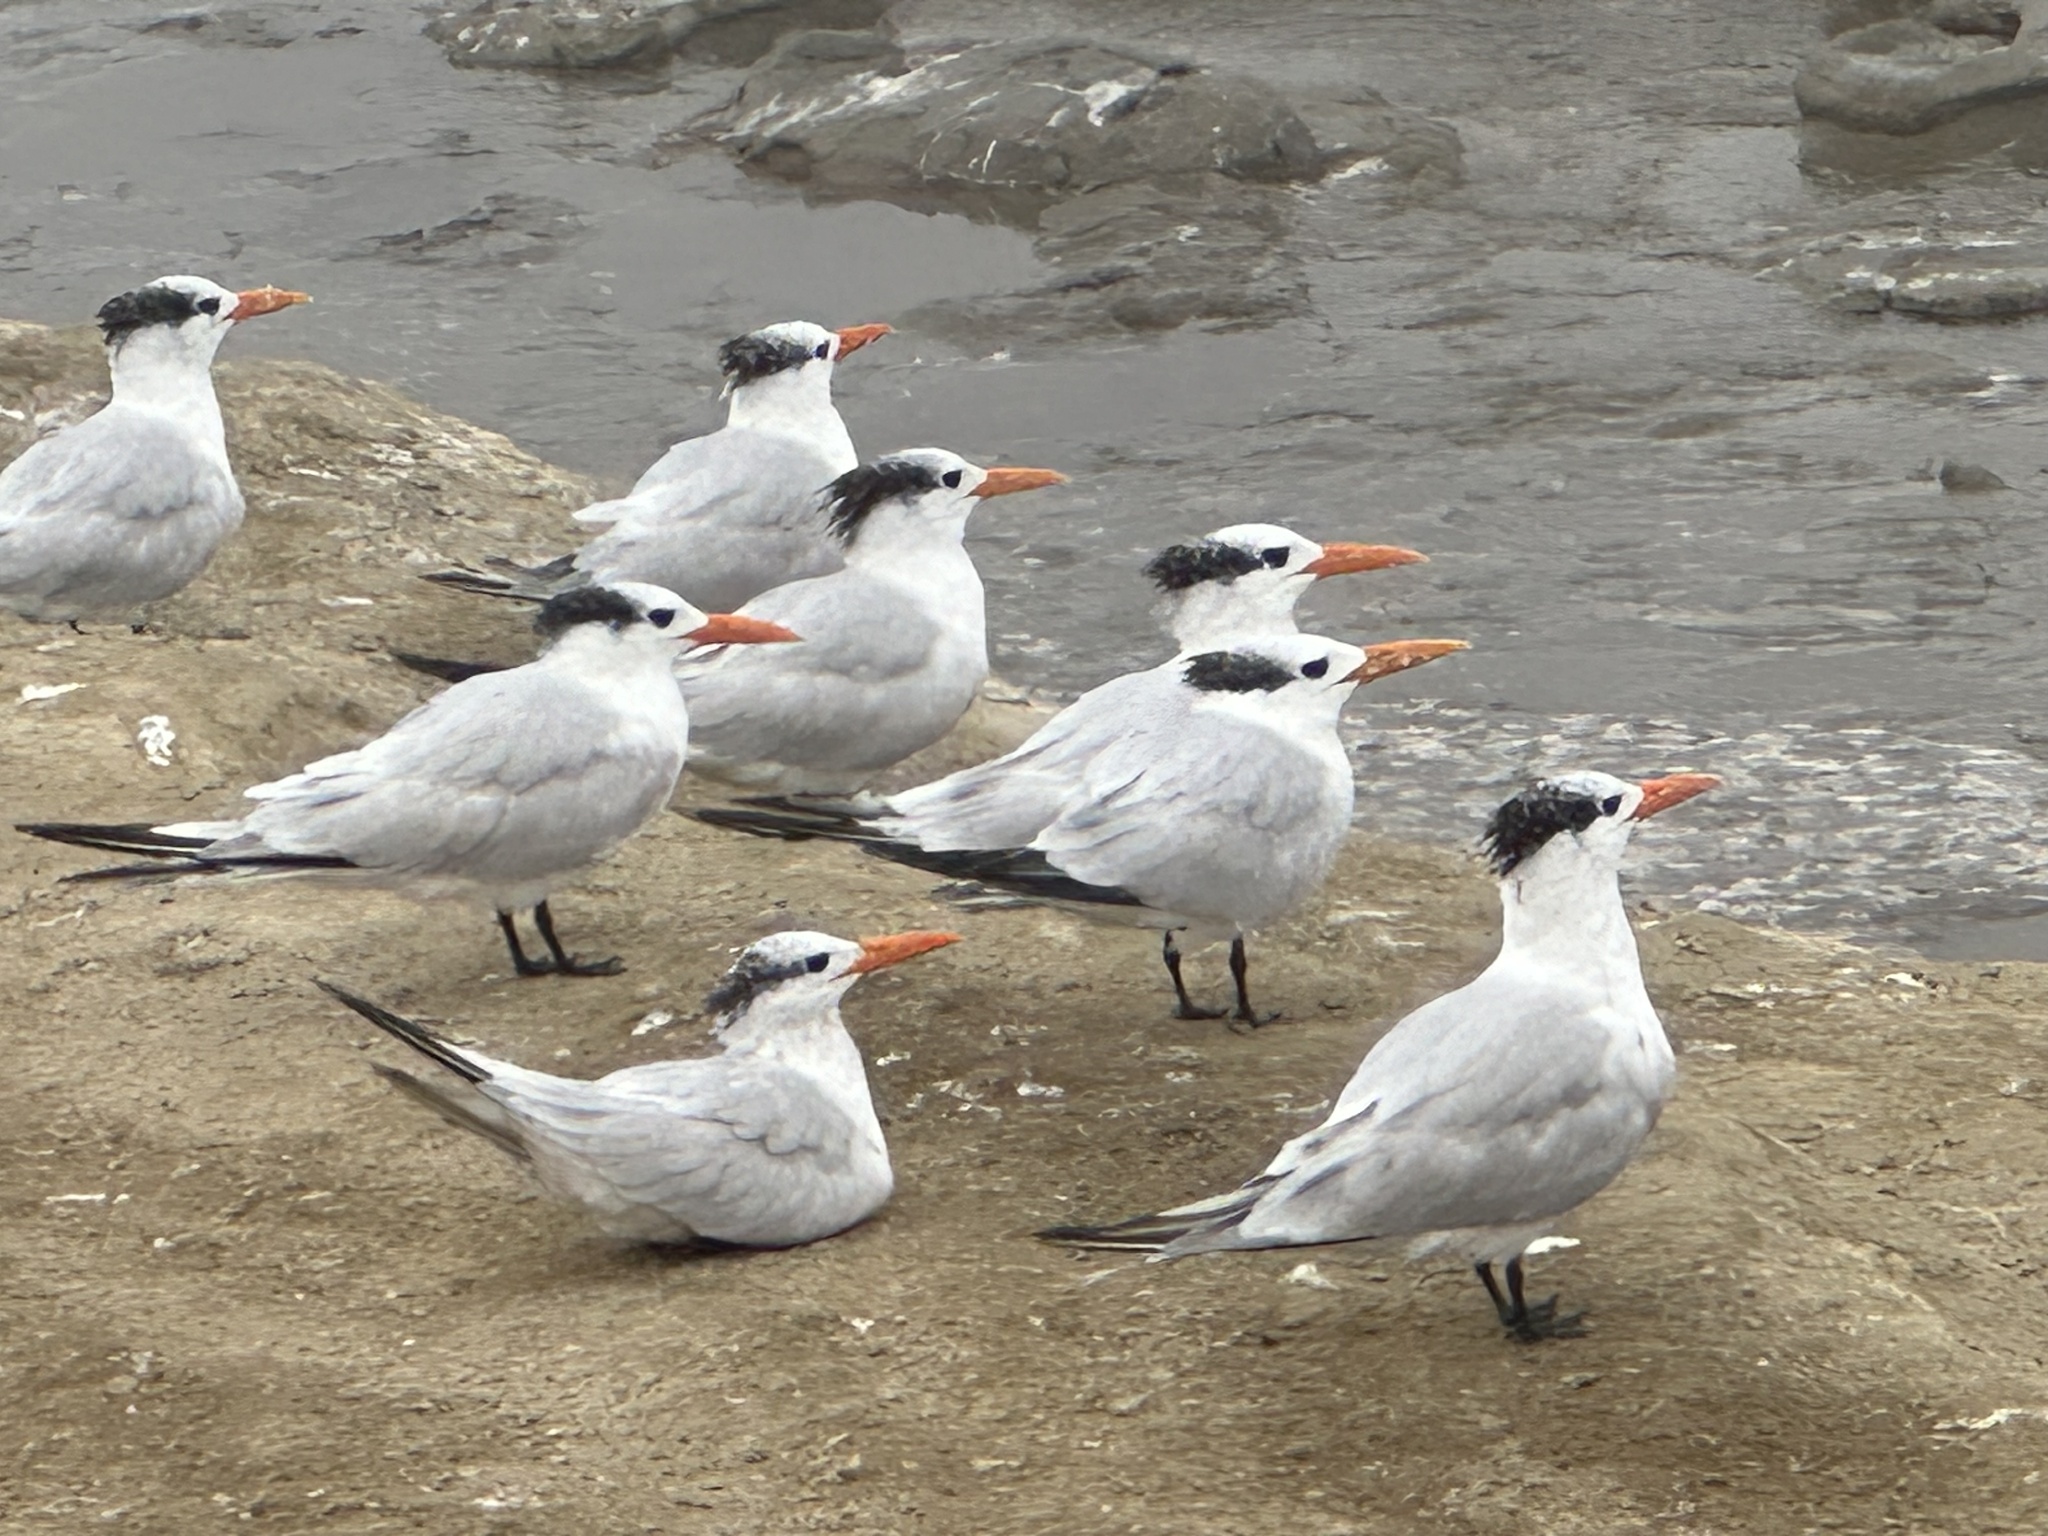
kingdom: Animalia
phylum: Chordata
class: Aves
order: Charadriiformes
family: Laridae
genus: Thalasseus
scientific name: Thalasseus maximus
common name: Royal tern
